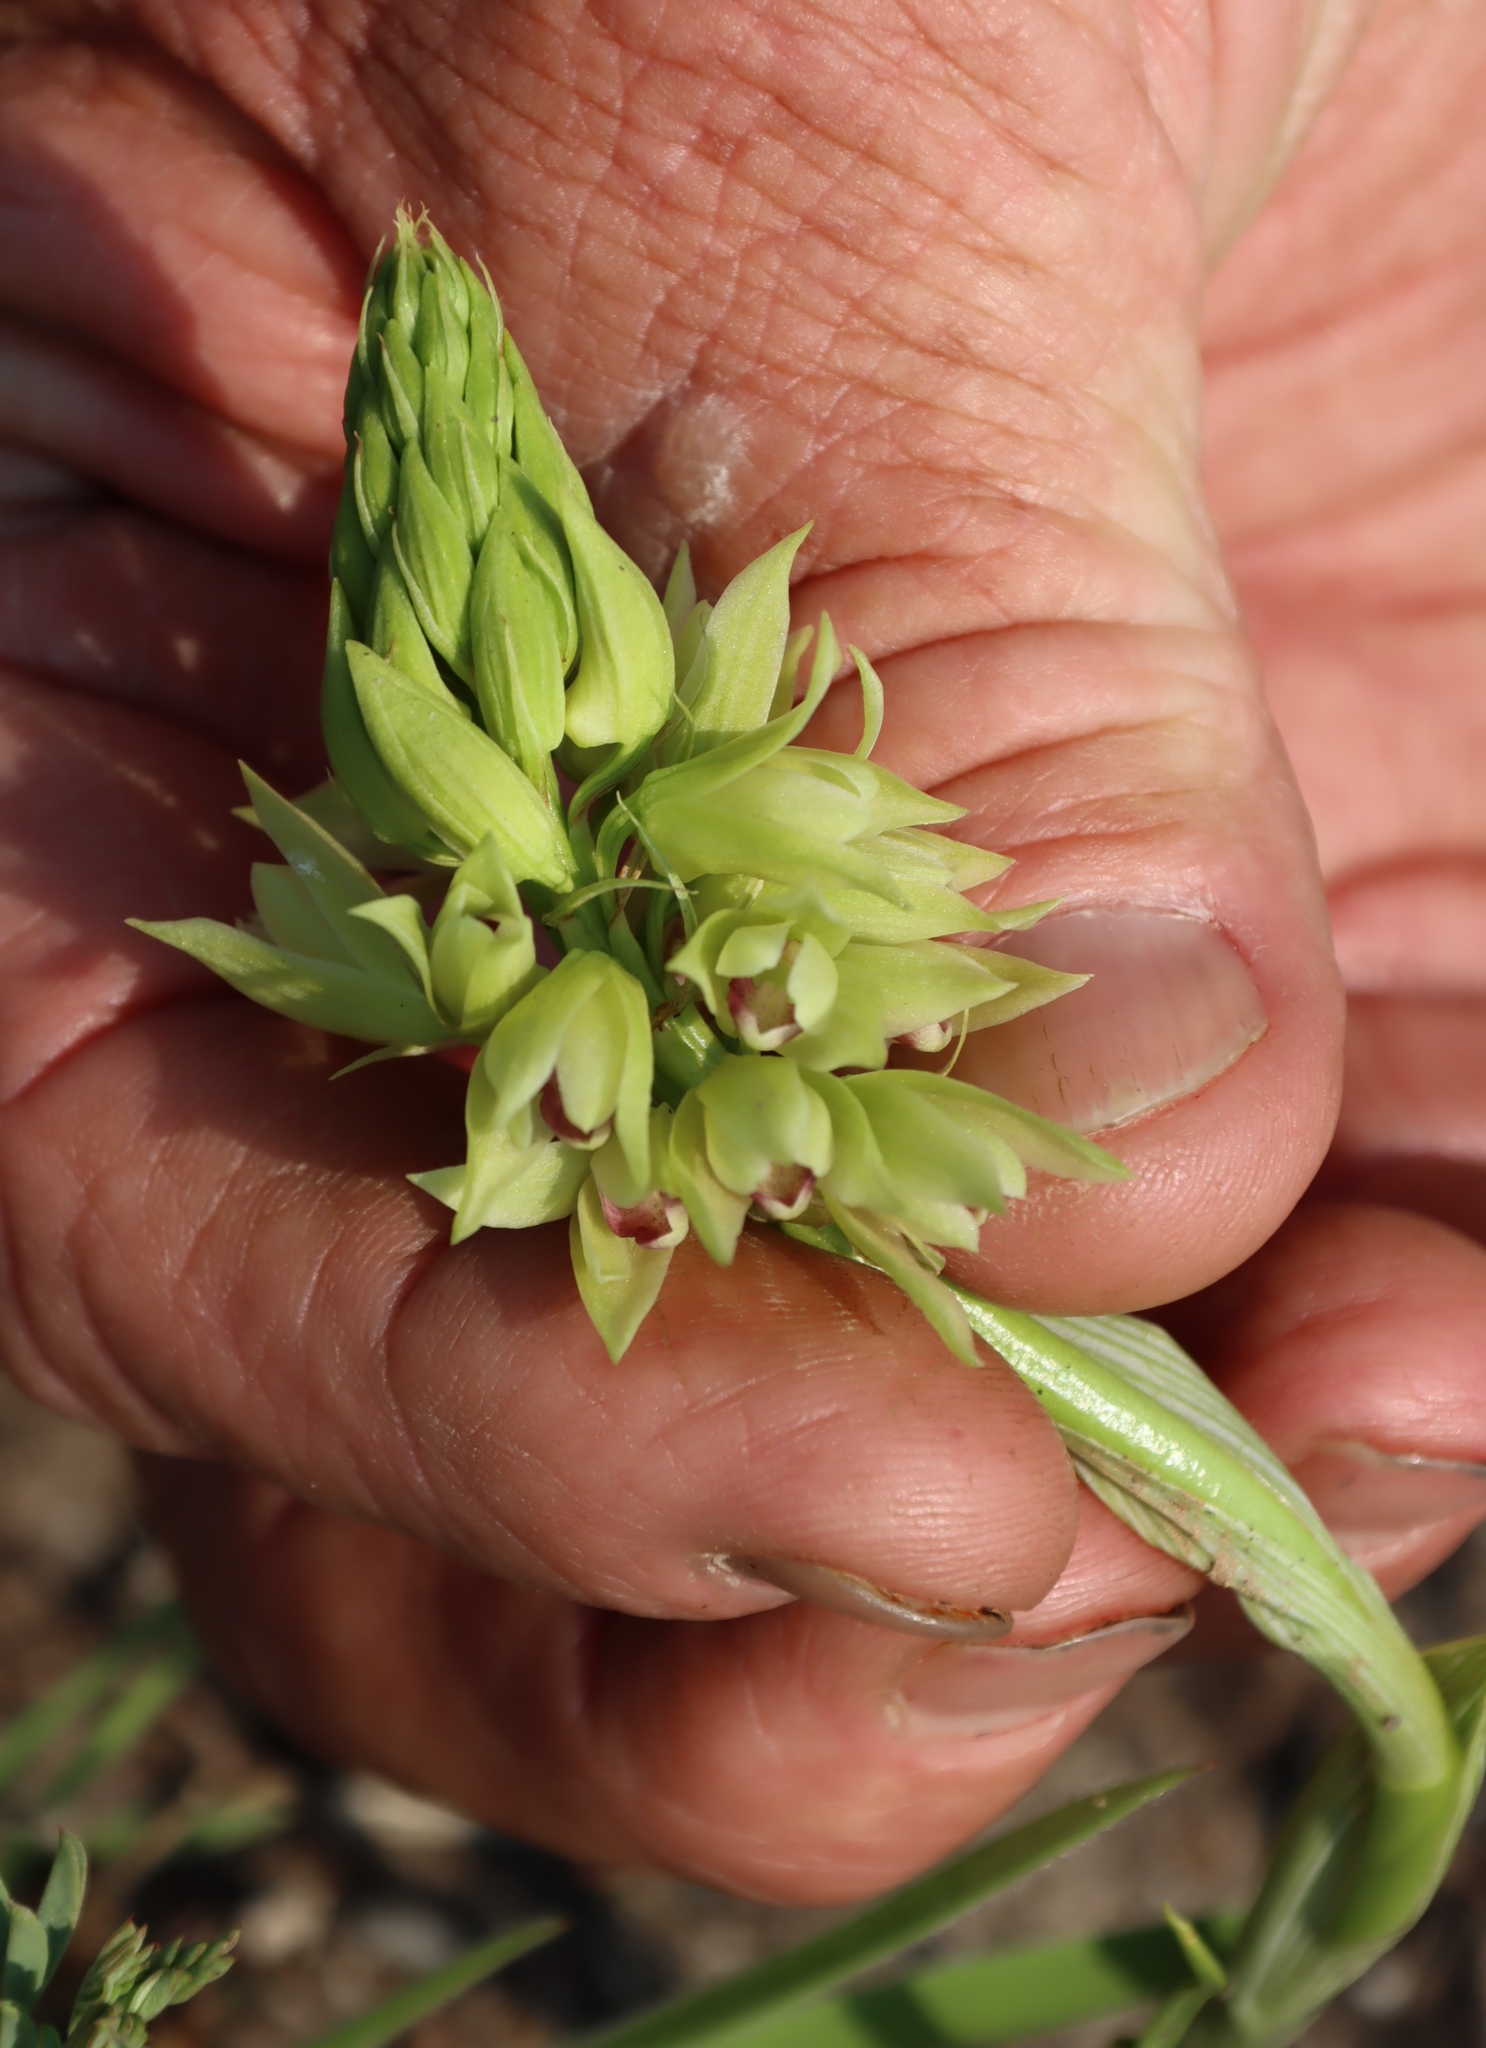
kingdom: Plantae
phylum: Tracheophyta
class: Liliopsida
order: Asparagales
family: Orchidaceae
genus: Eulophia
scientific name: Eulophia foliosa
